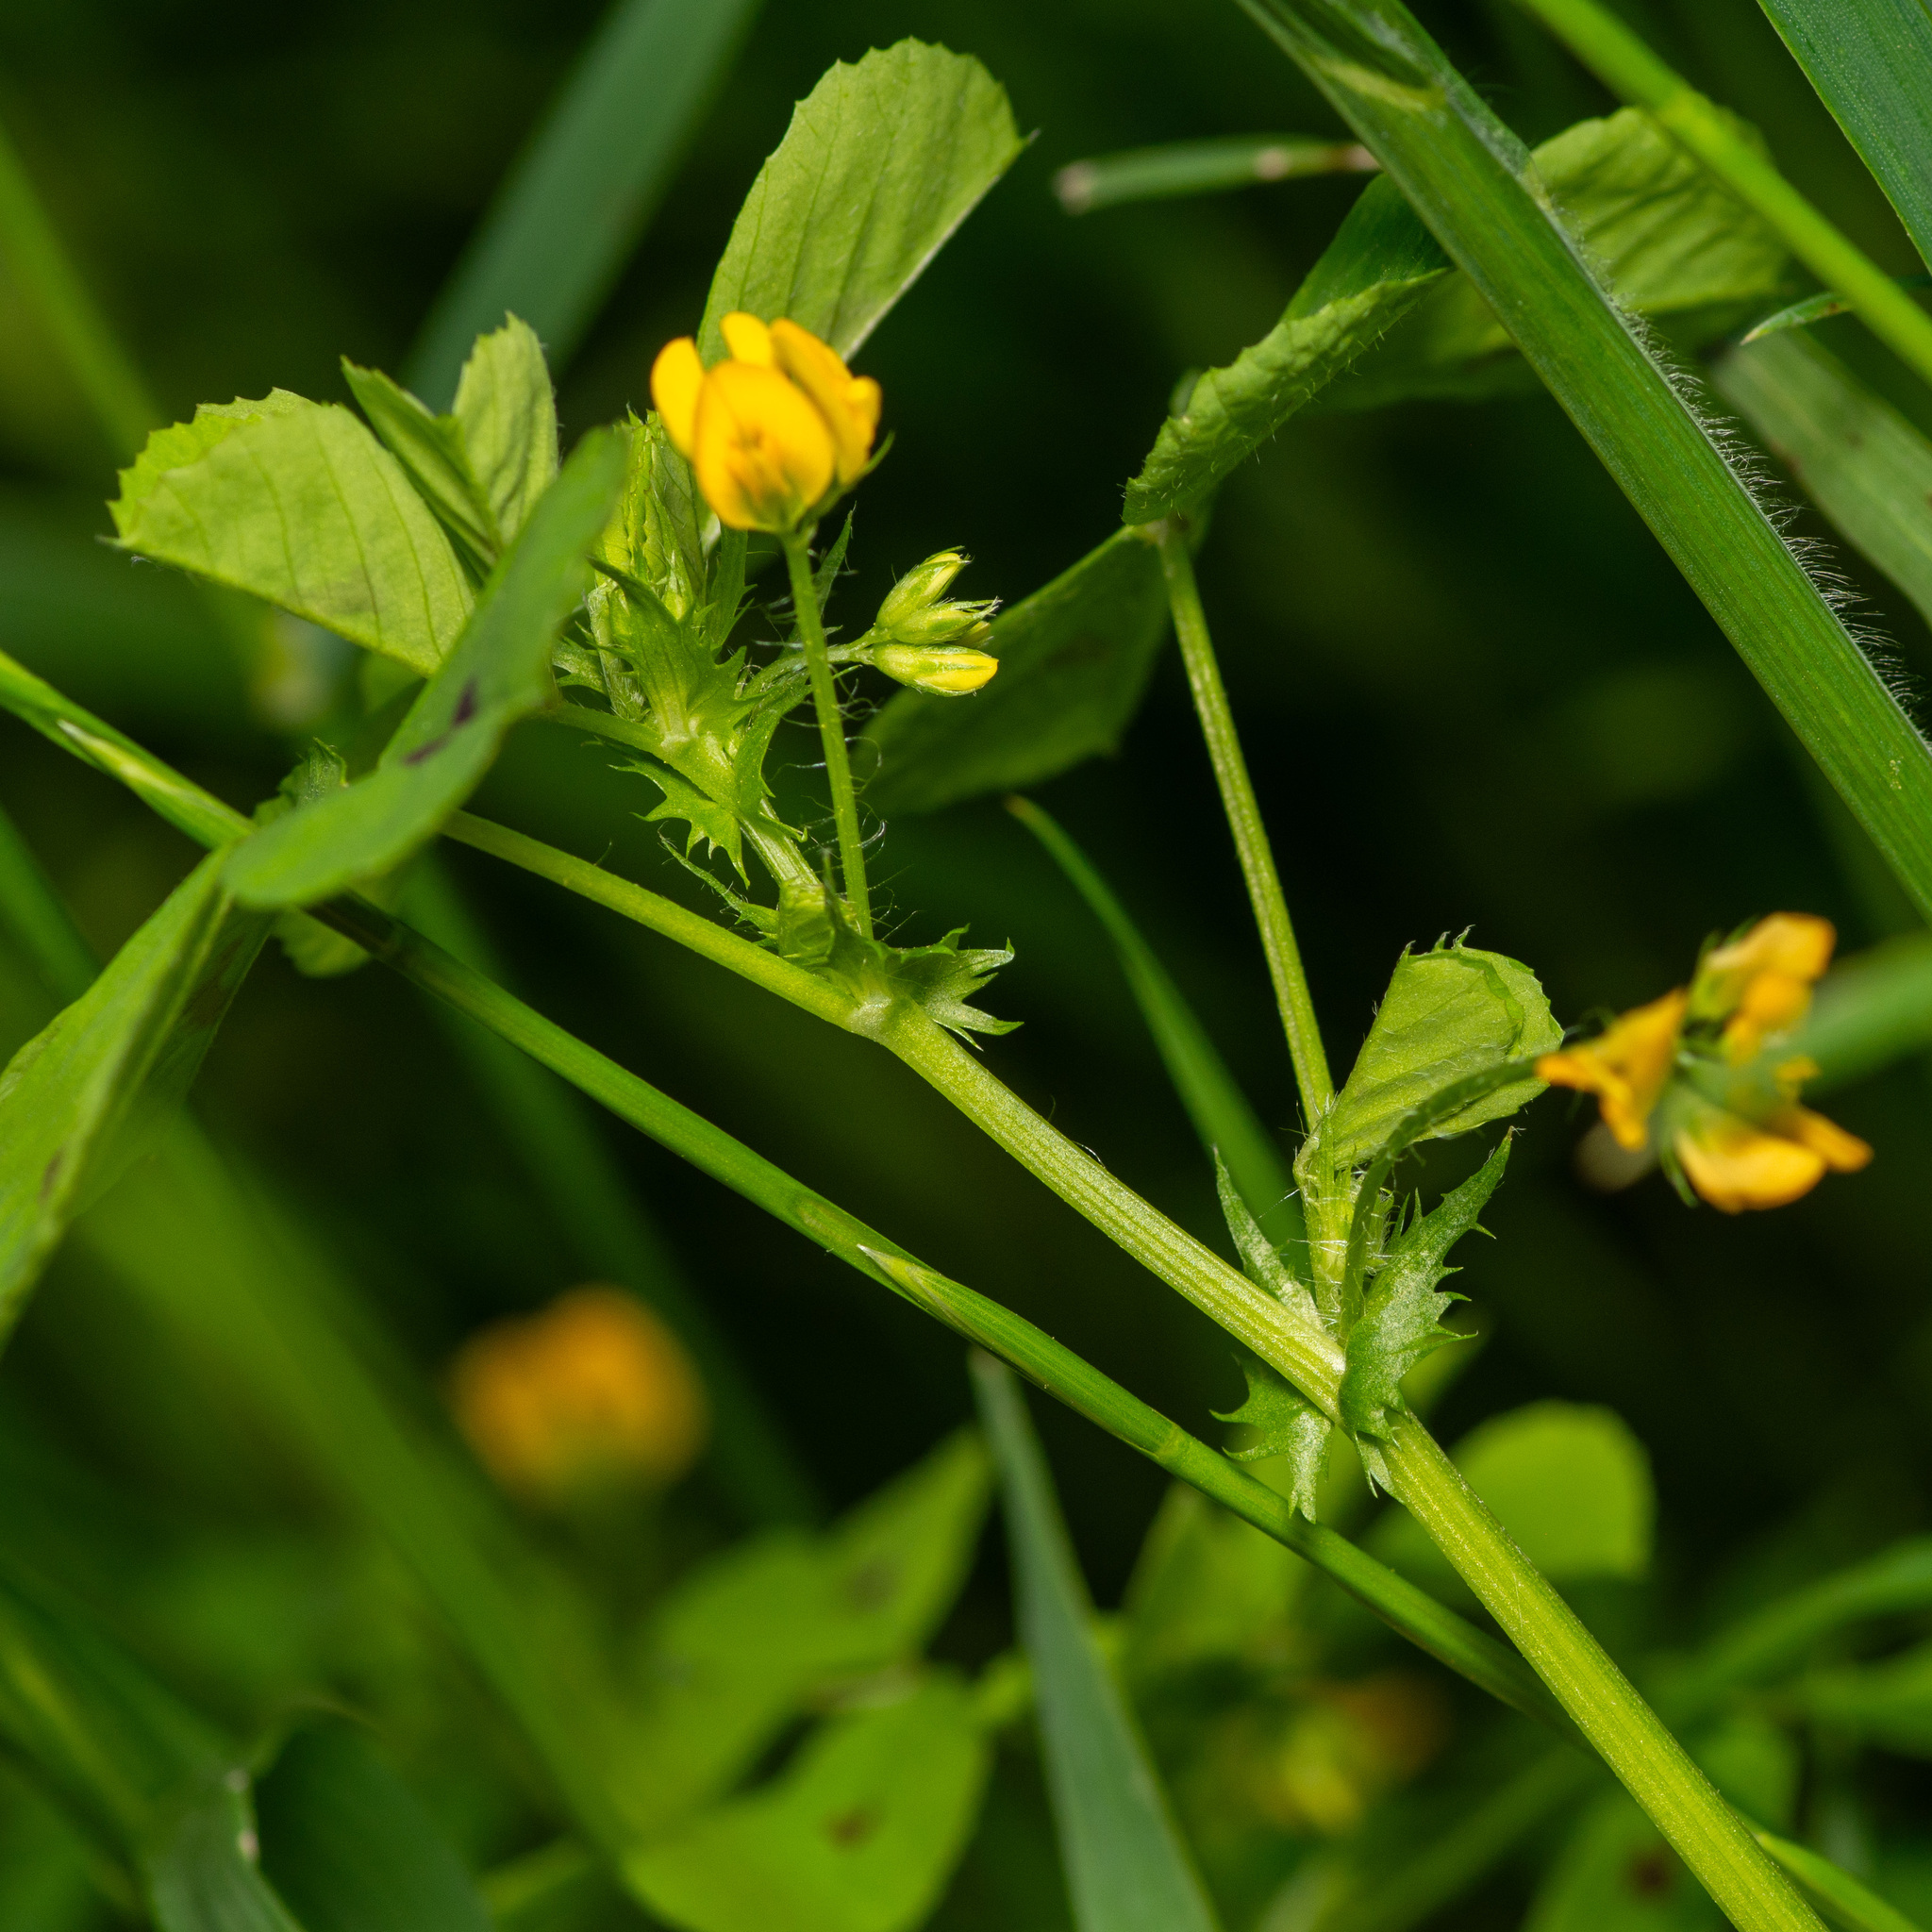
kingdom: Plantae
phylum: Tracheophyta
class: Magnoliopsida
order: Fabales
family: Fabaceae
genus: Medicago
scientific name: Medicago arabica
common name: Spotted medick
